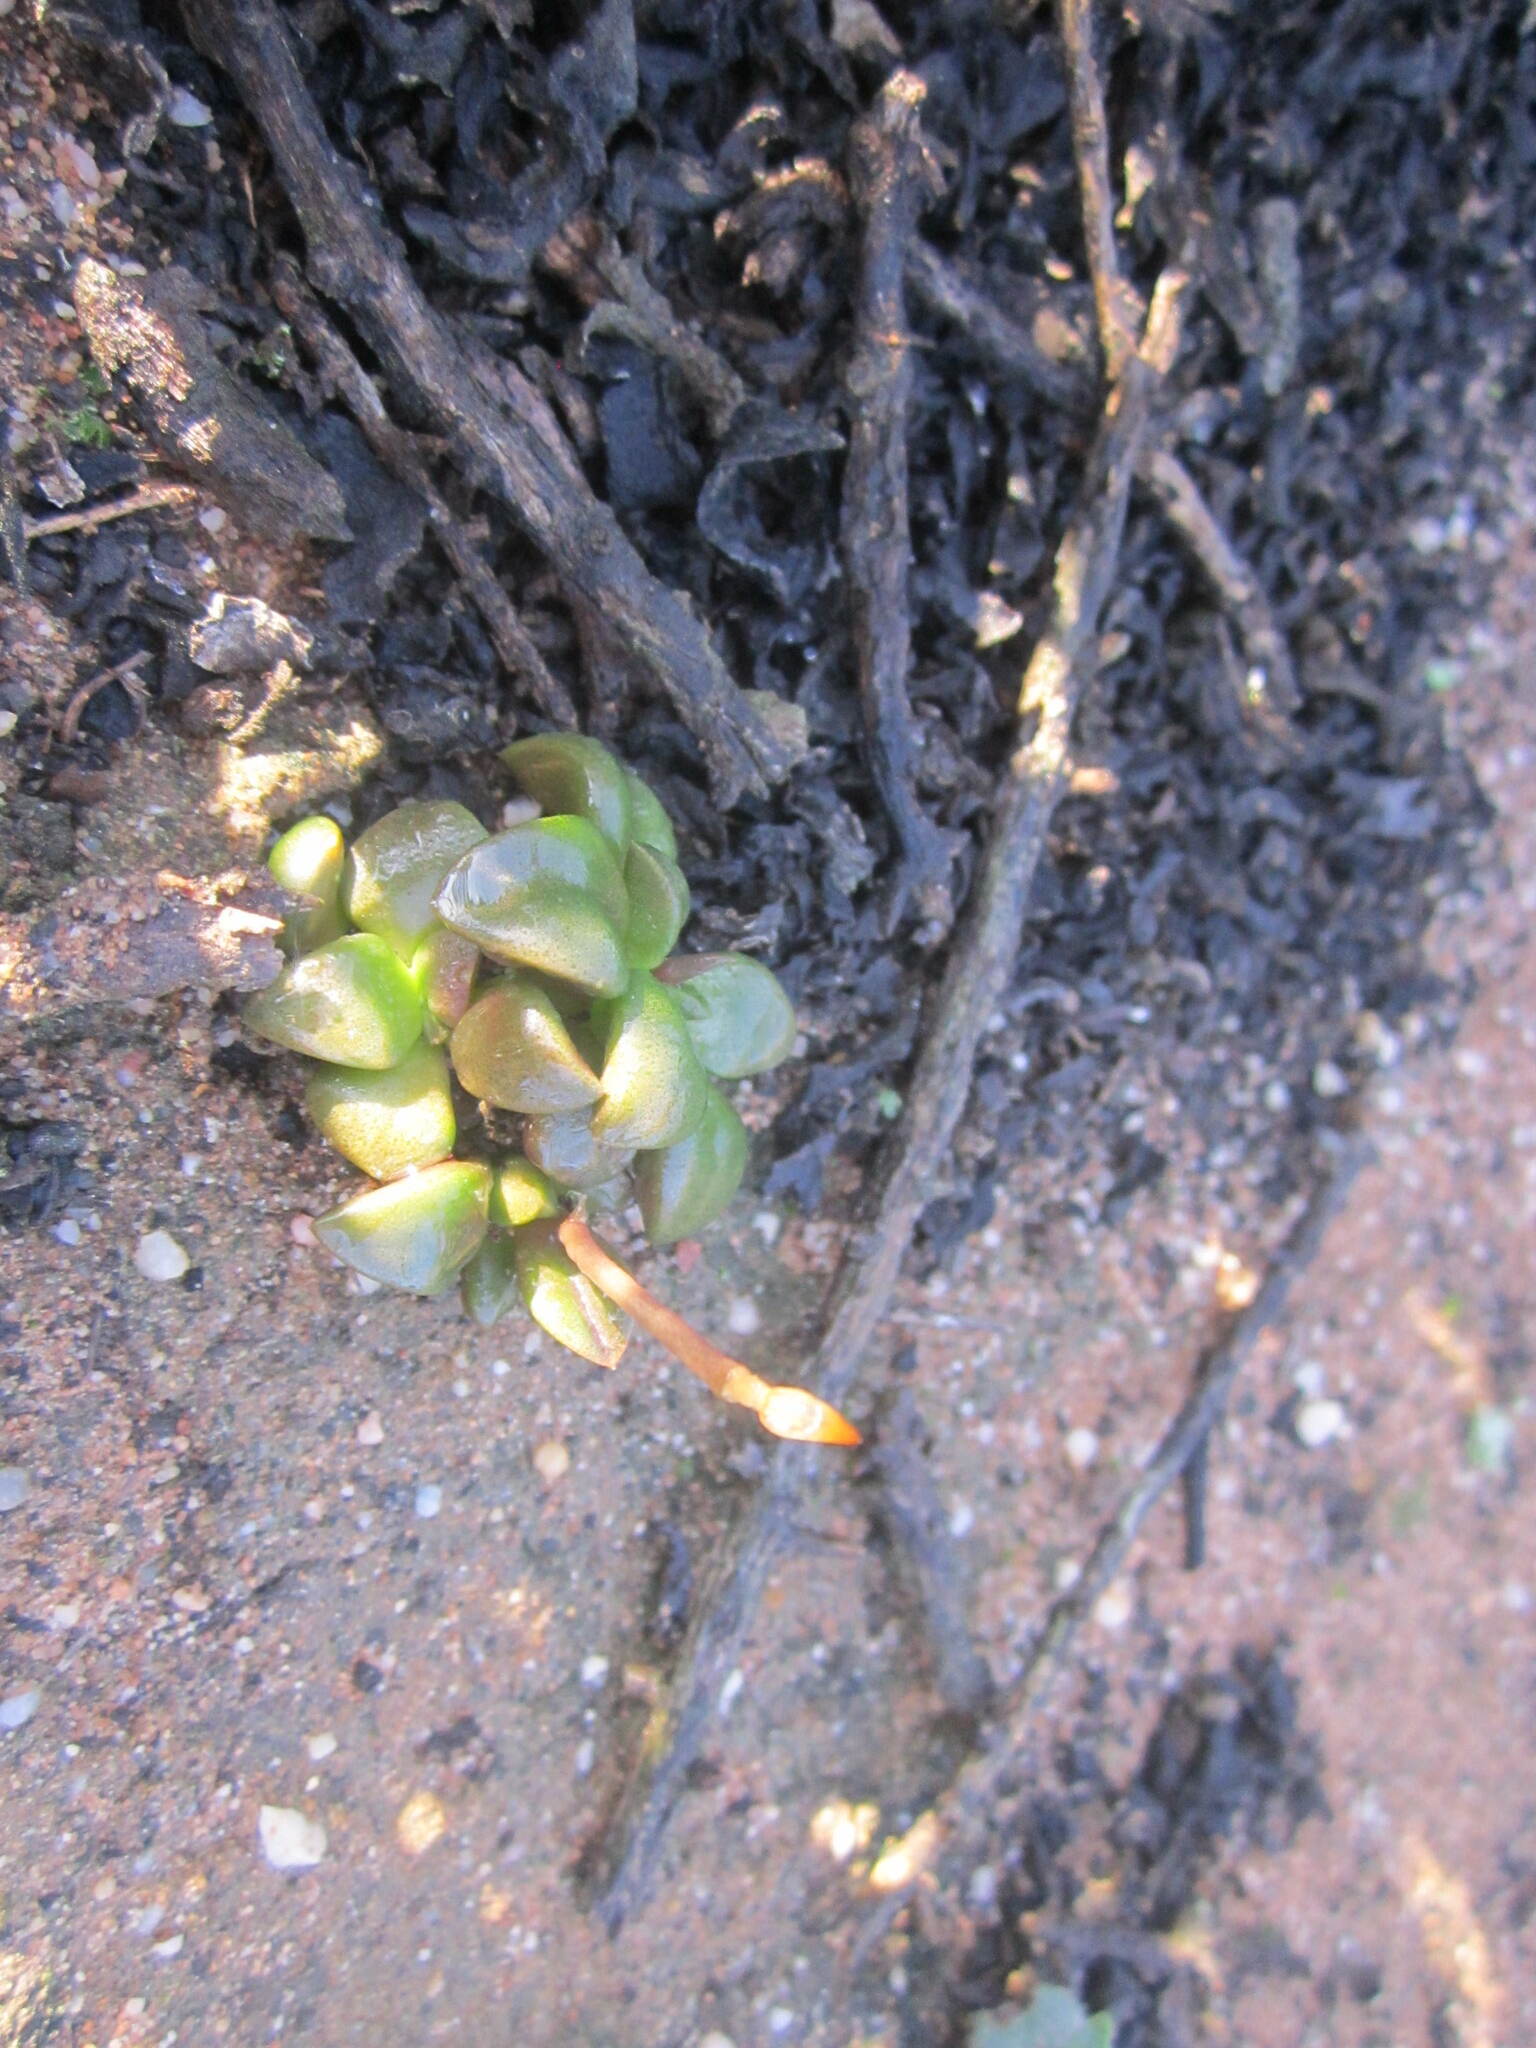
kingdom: Plantae
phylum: Tracheophyta
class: Magnoliopsida
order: Caryophyllales
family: Anacampserotaceae
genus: Anacampseros
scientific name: Anacampseros retusa
